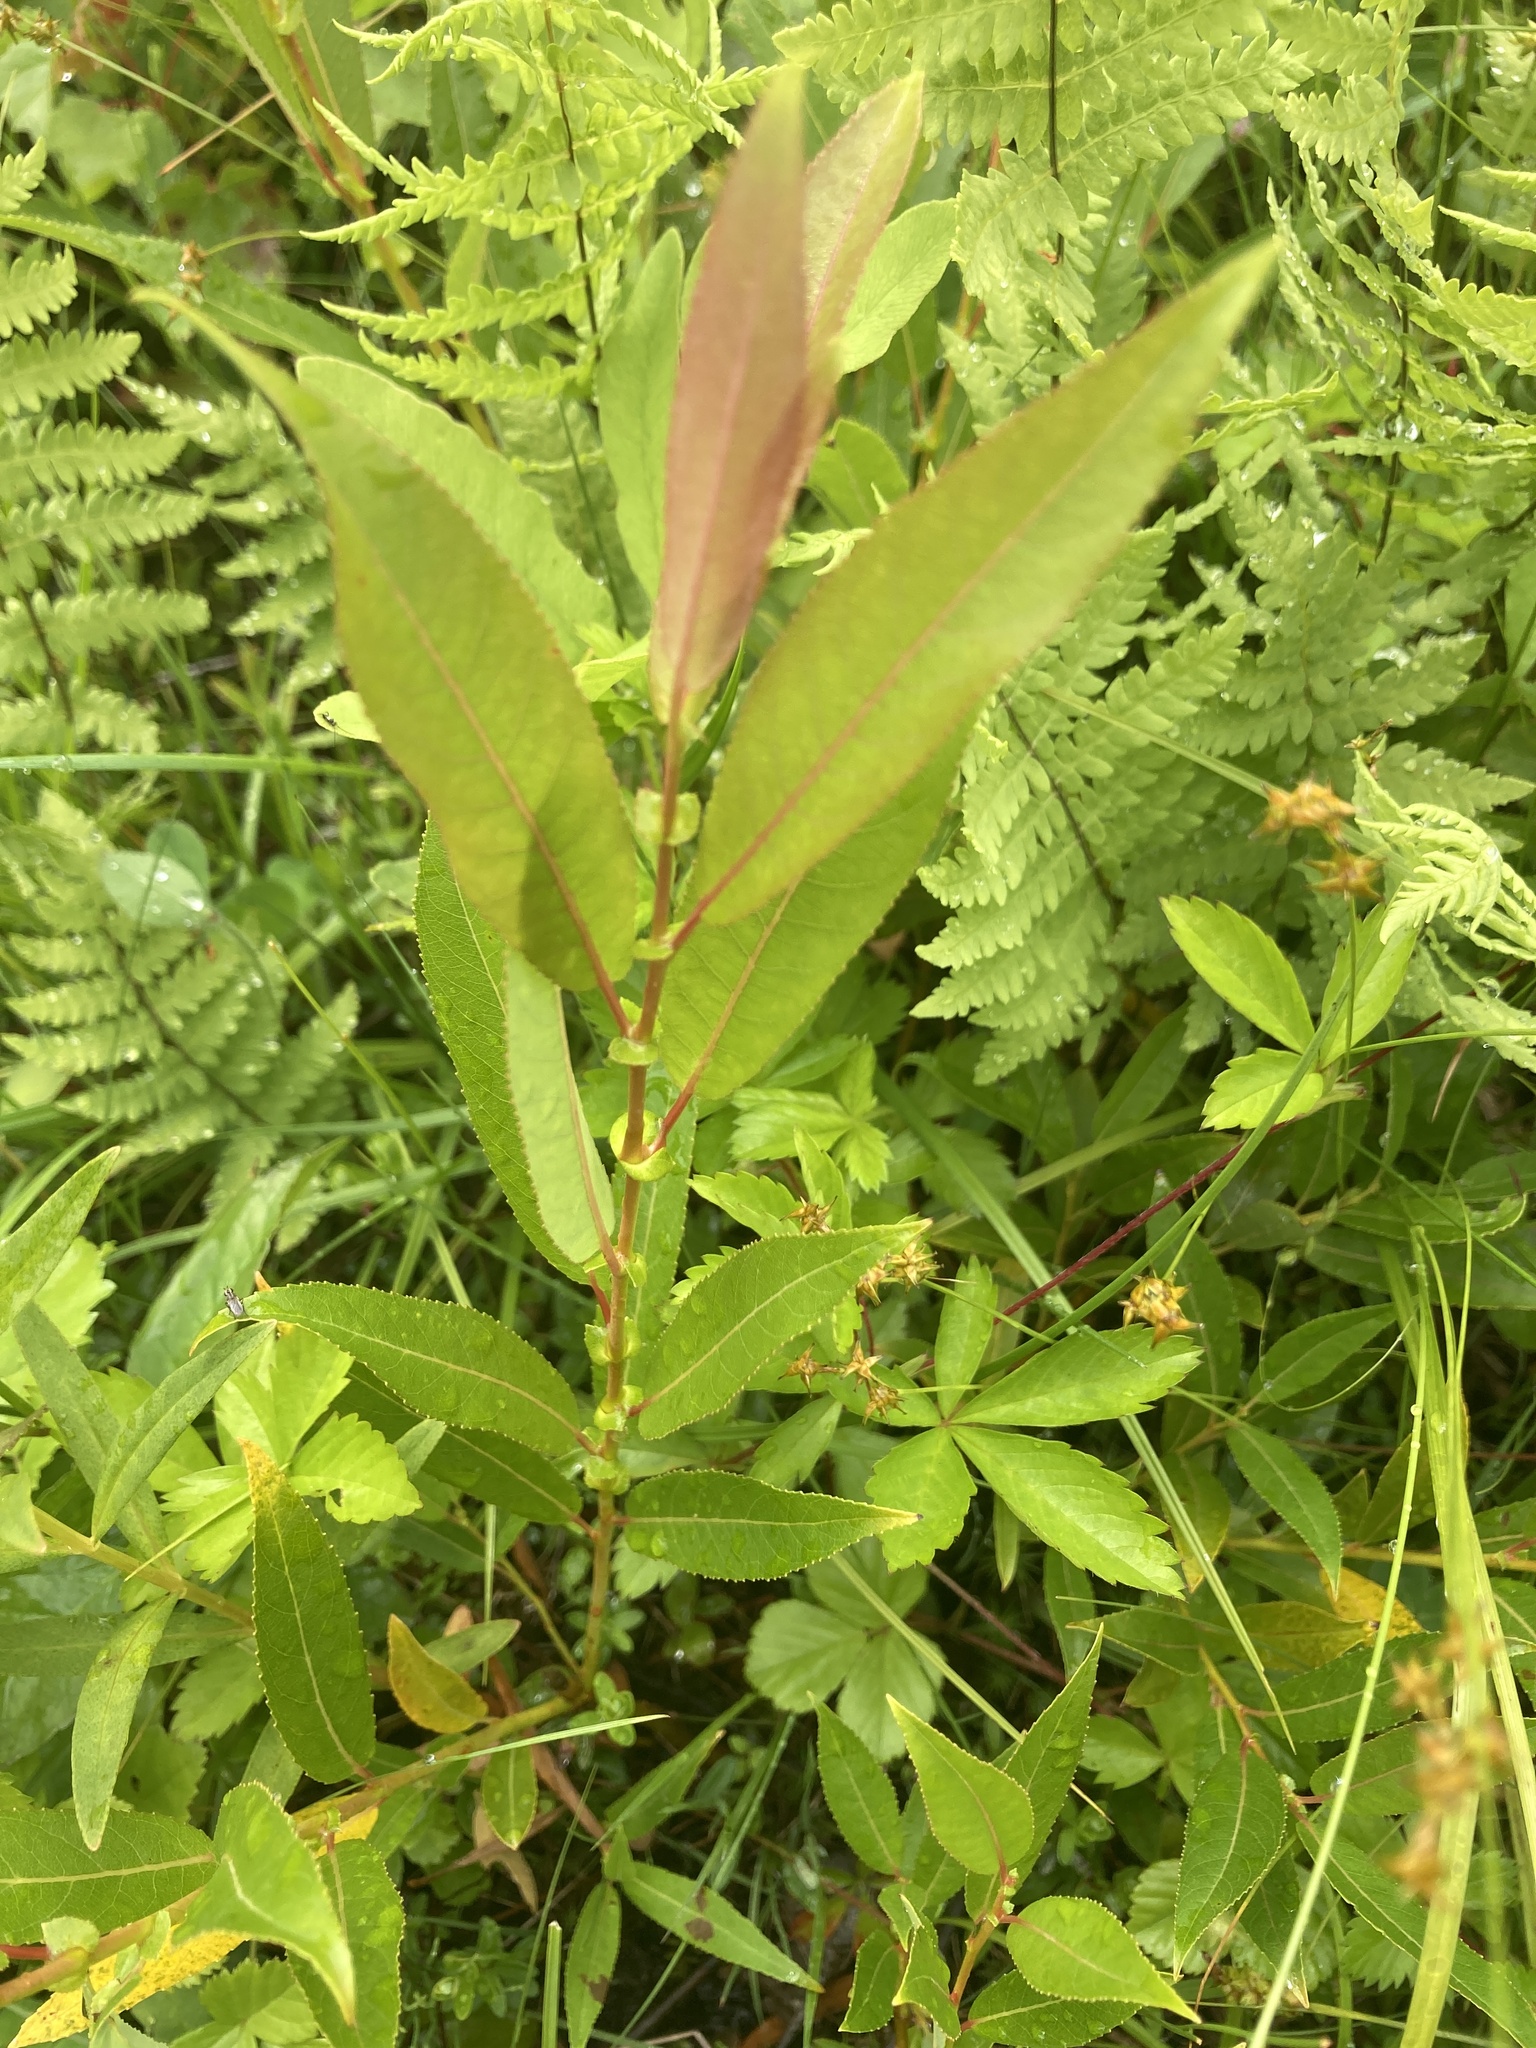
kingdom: Plantae
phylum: Tracheophyta
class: Magnoliopsida
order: Malpighiales
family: Salicaceae
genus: Salix
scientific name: Salix eriocephala
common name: Heart-leaved willow
